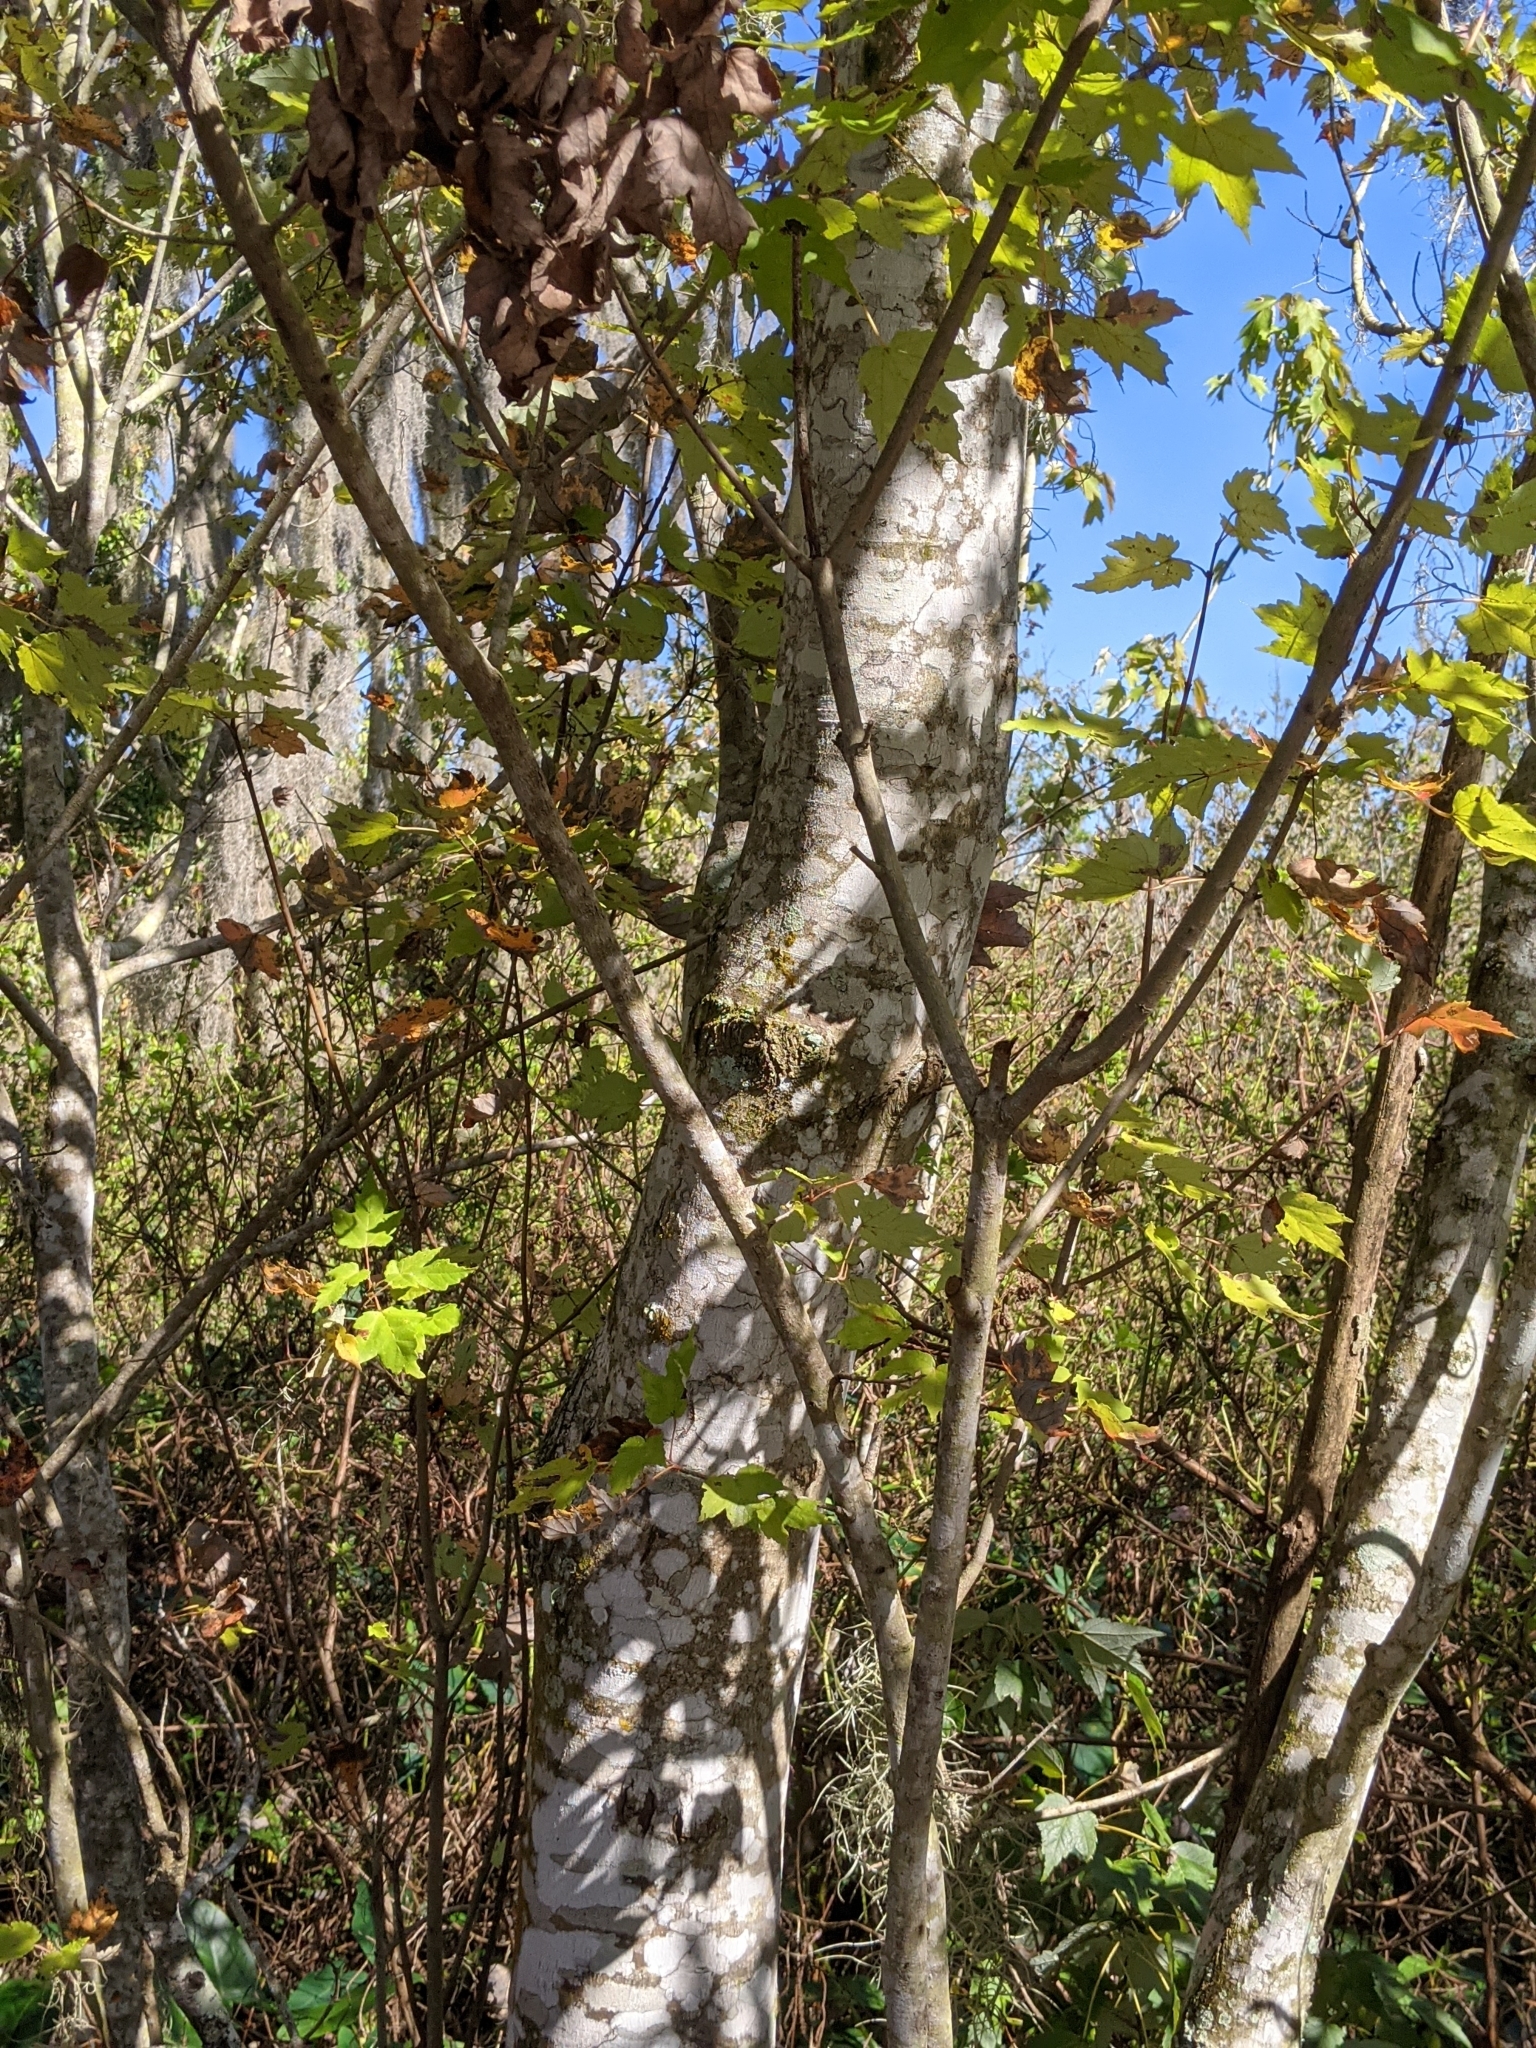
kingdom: Plantae
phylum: Tracheophyta
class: Magnoliopsida
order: Sapindales
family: Sapindaceae
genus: Acer
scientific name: Acer rubrum
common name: Red maple
